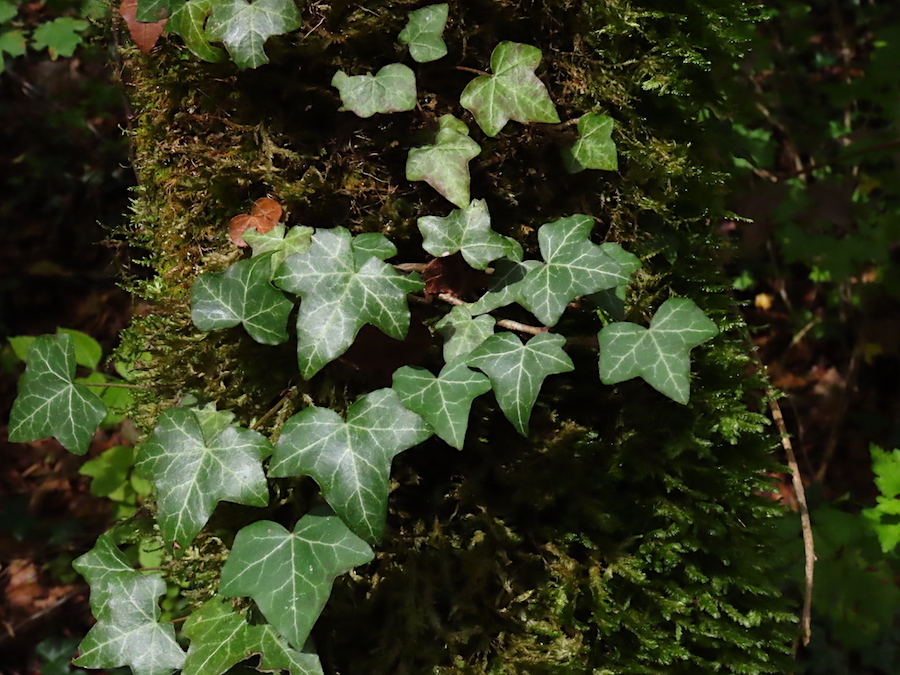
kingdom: Plantae
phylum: Tracheophyta
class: Magnoliopsida
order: Apiales
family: Araliaceae
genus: Hedera
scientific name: Hedera helix
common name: Ivy
